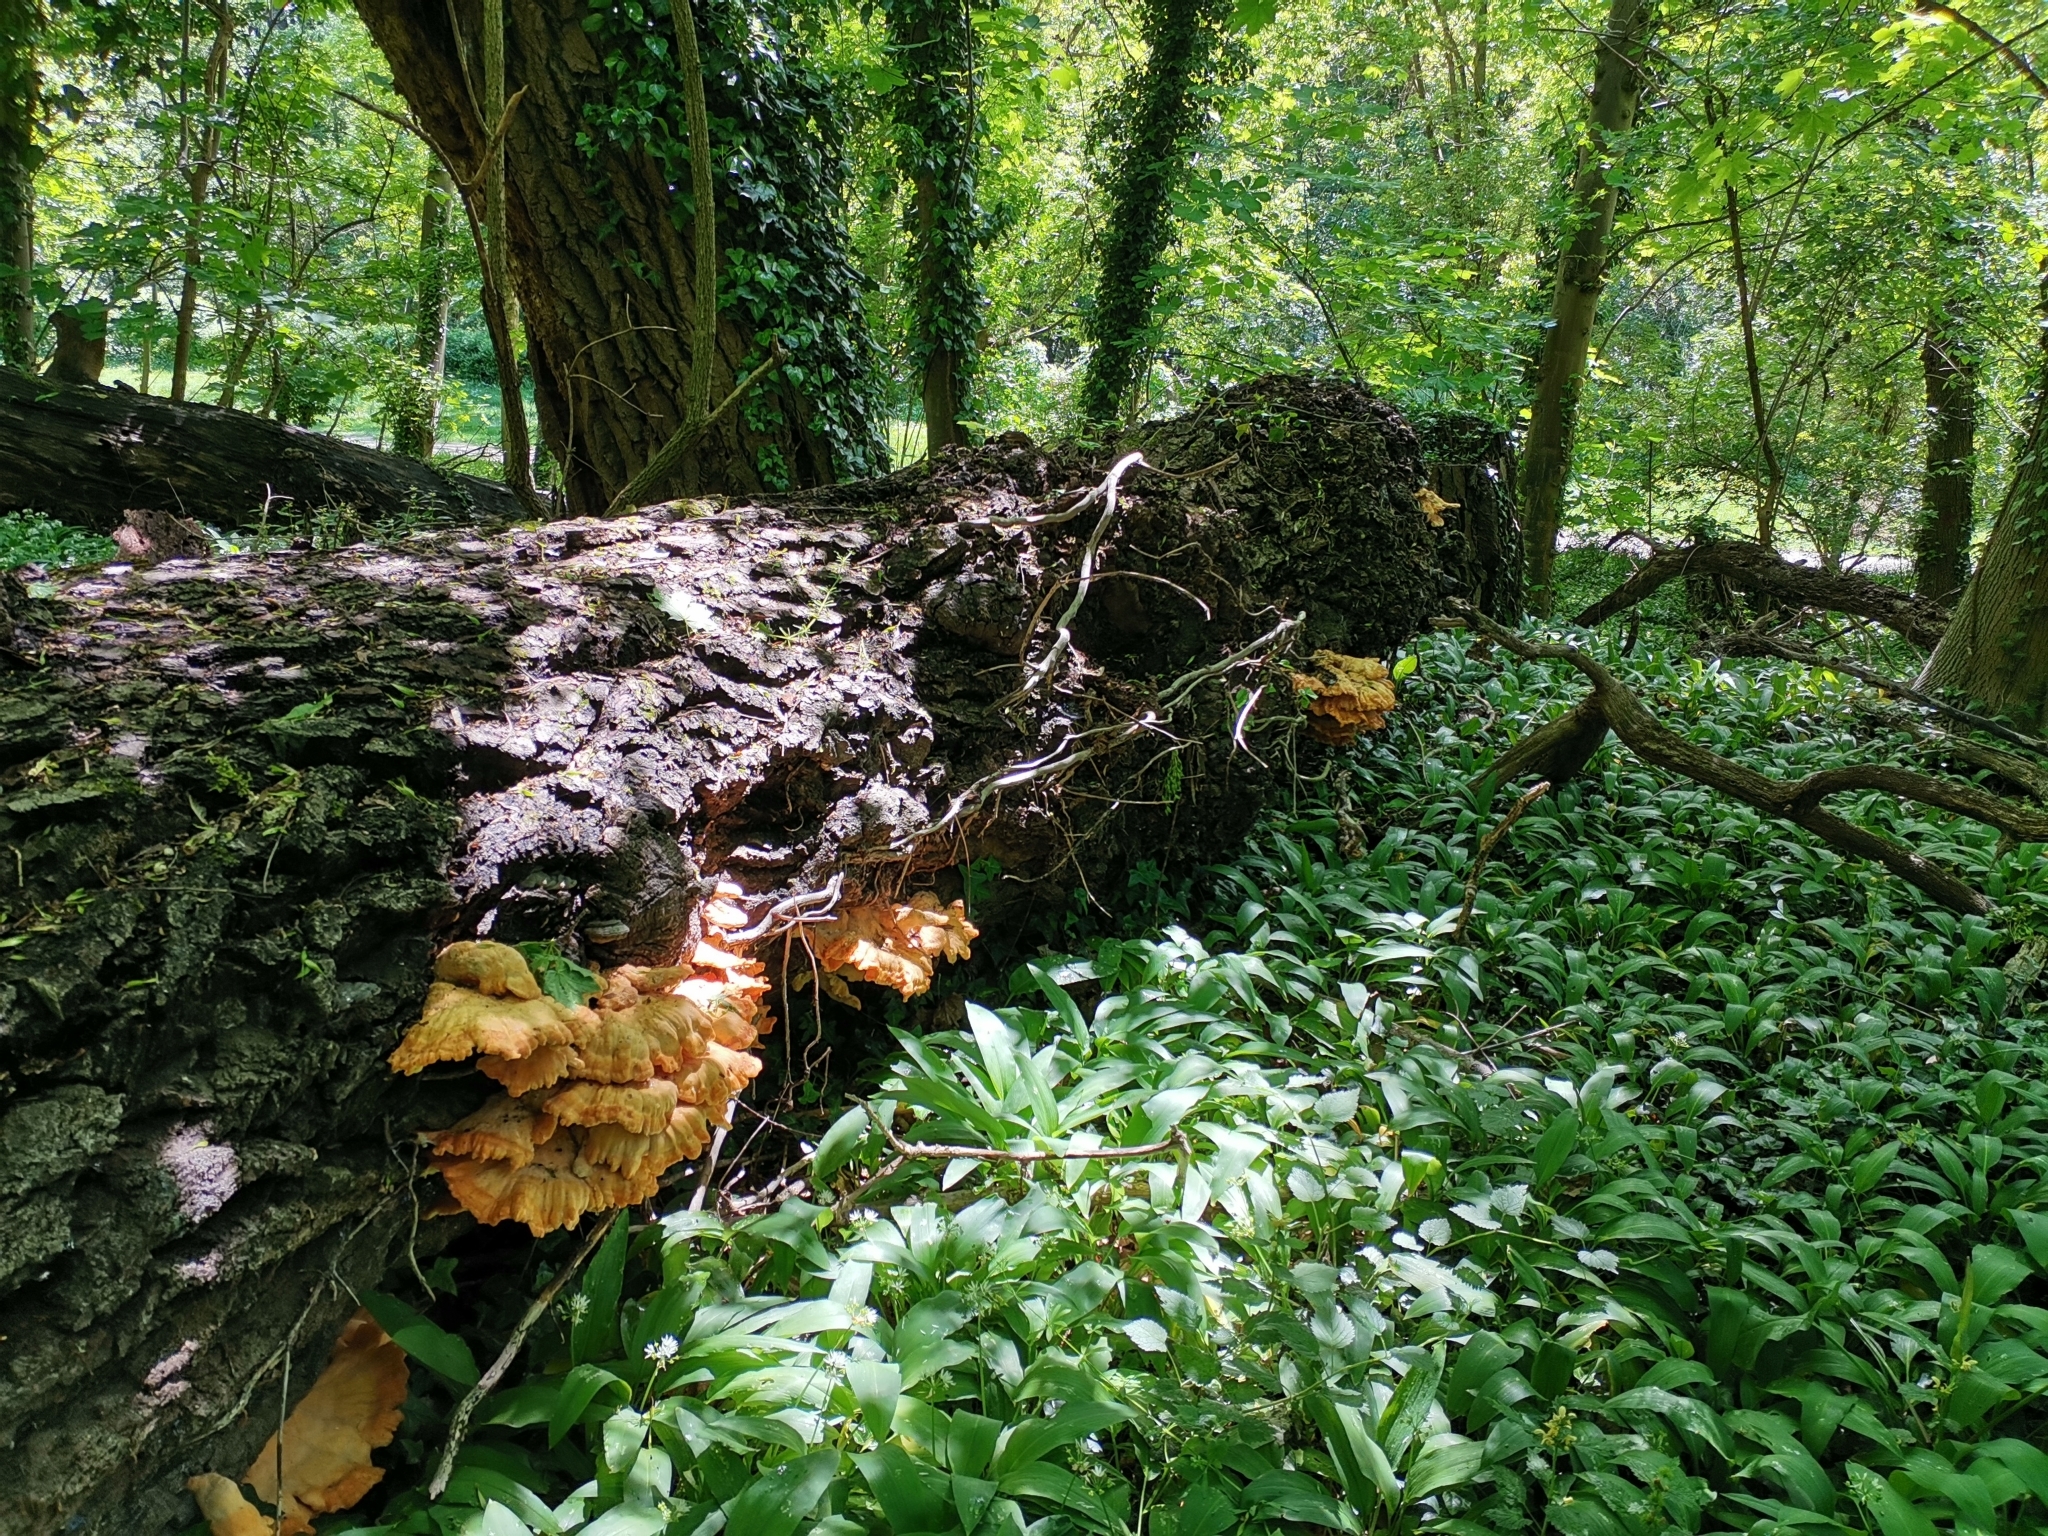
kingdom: Fungi
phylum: Basidiomycota
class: Agaricomycetes
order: Polyporales
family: Laetiporaceae
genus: Laetiporus
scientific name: Laetiporus sulphureus
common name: Chicken of the woods
